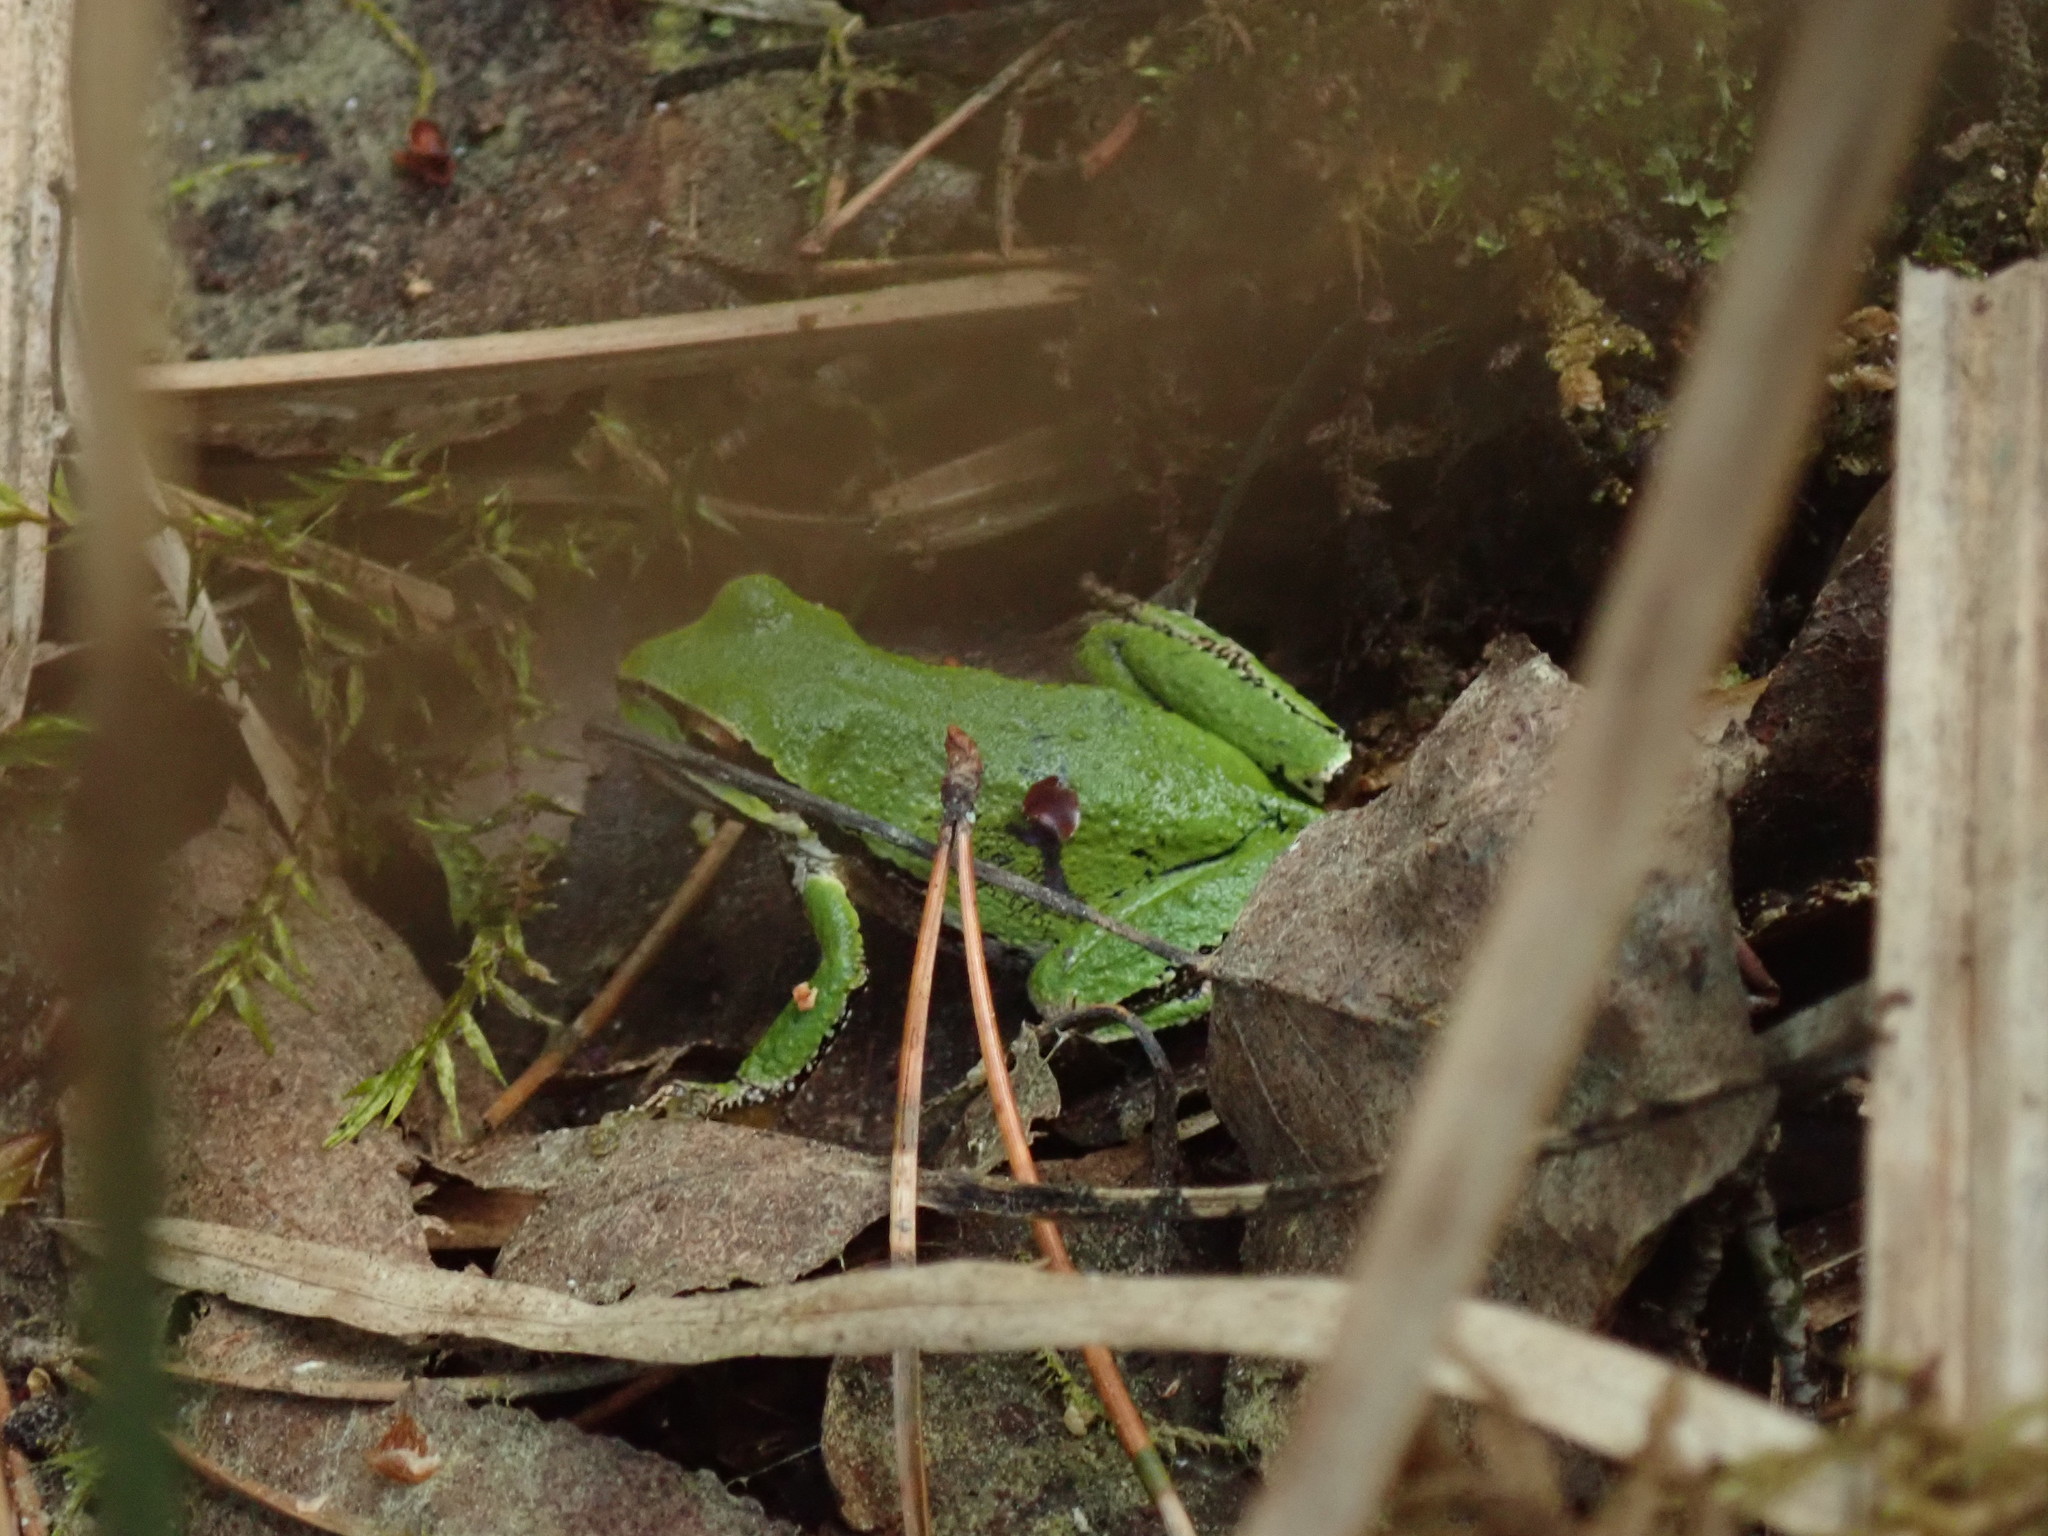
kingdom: Animalia
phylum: Chordata
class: Amphibia
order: Anura
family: Hylidae
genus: Pseudacris
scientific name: Pseudacris regilla
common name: Pacific chorus frog
